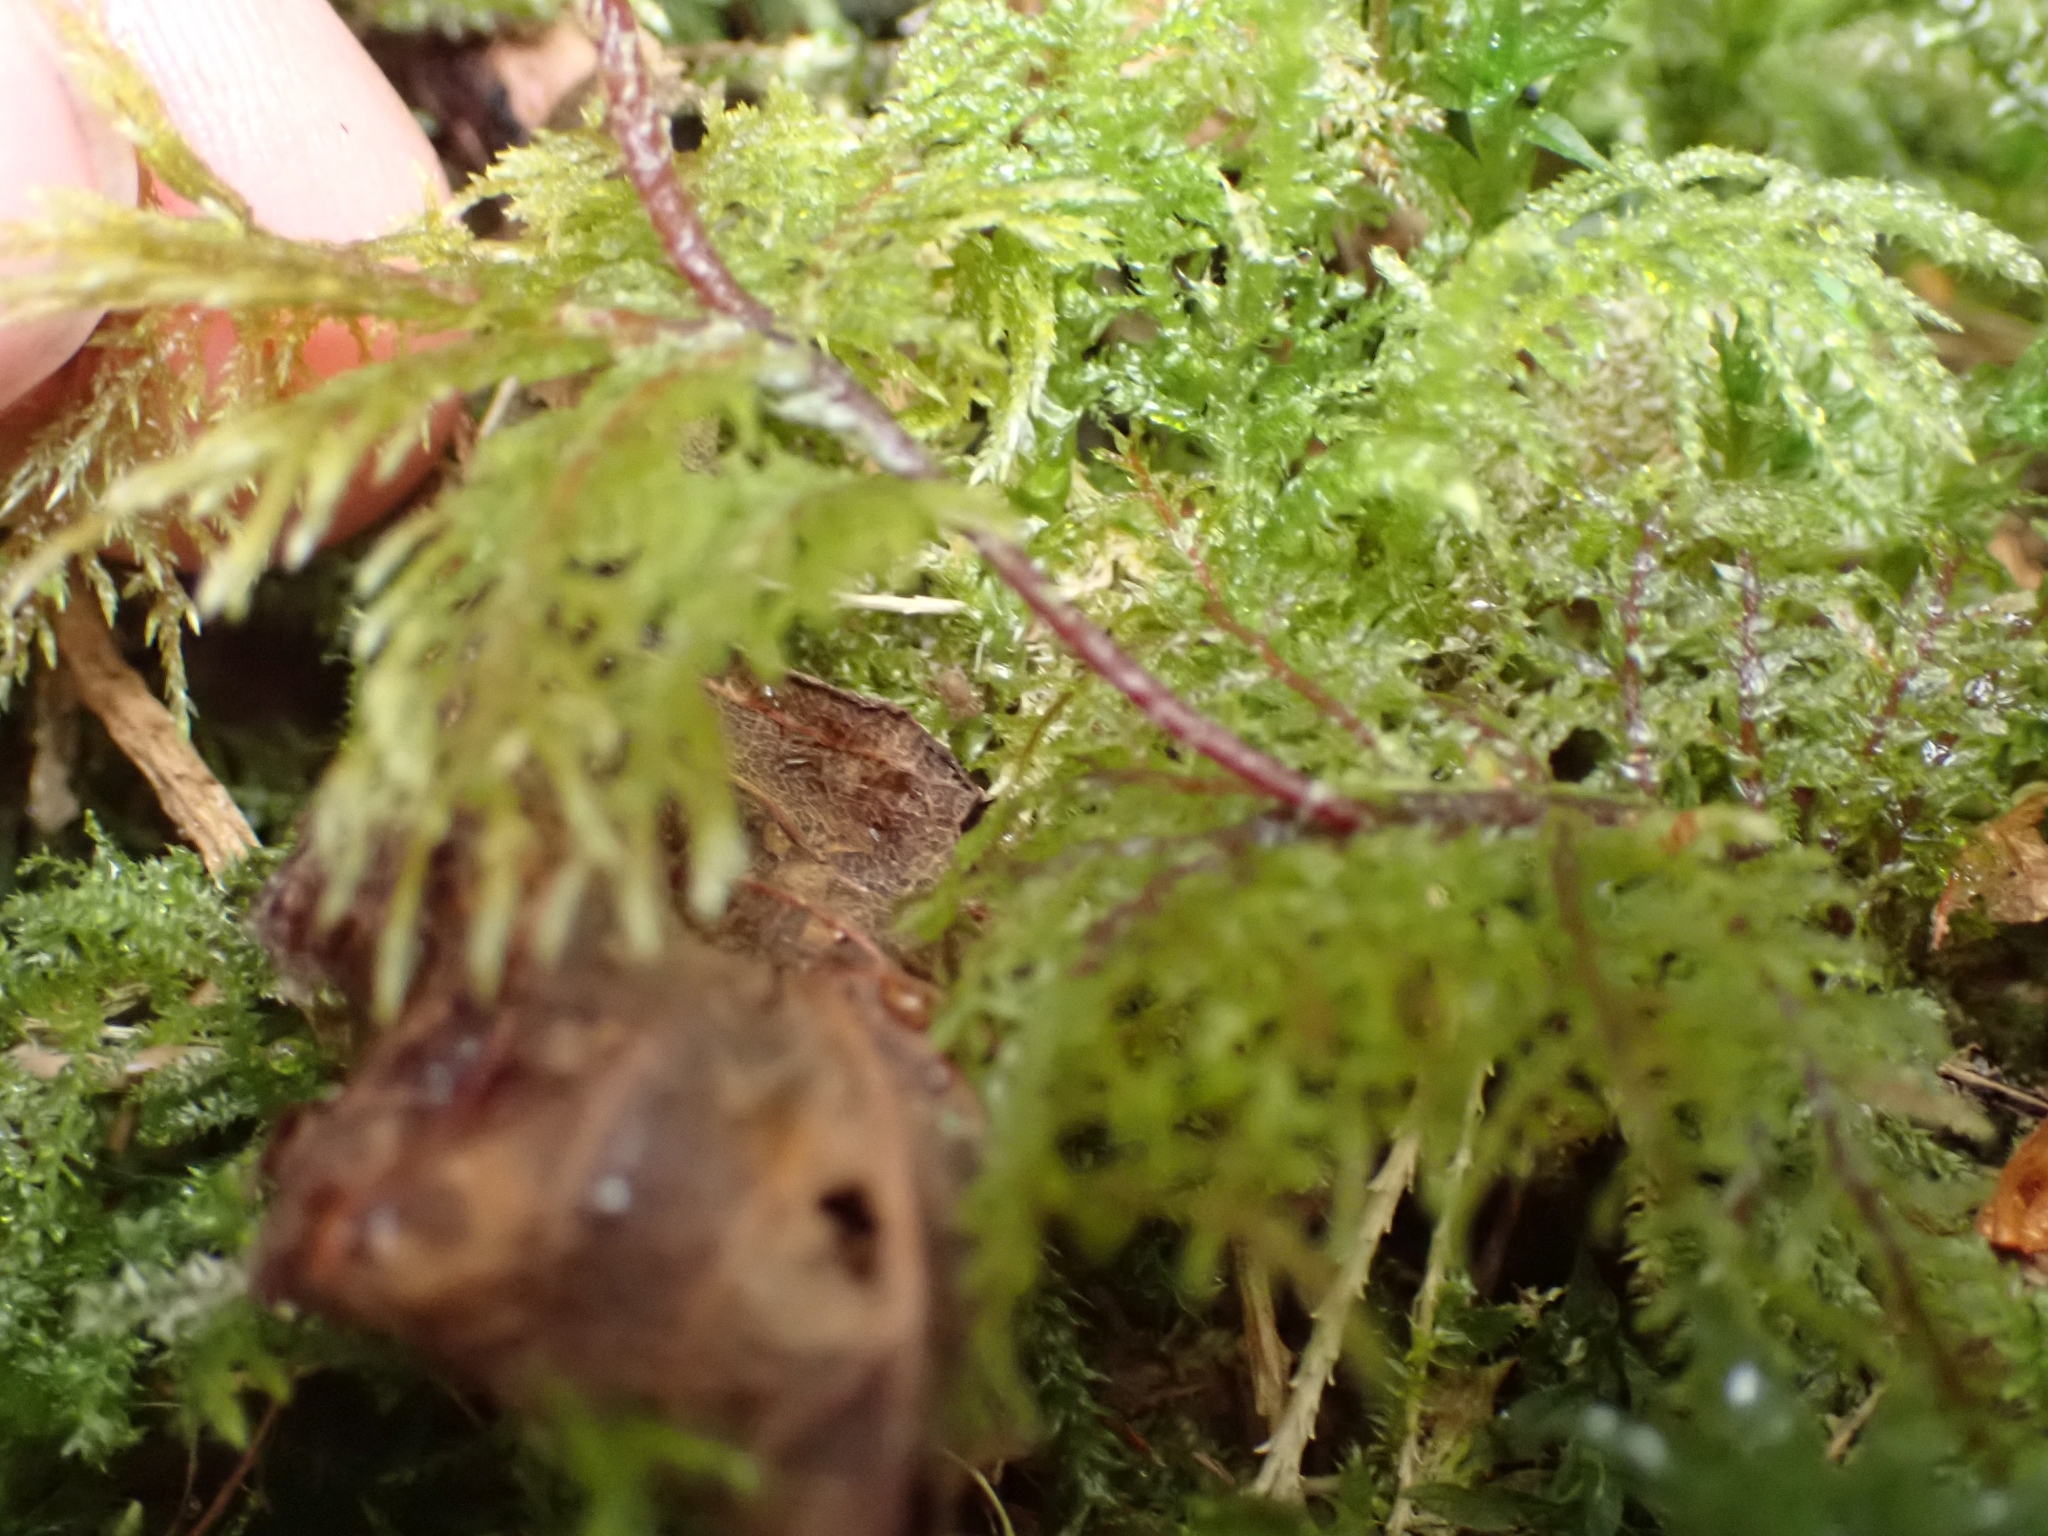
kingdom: Plantae
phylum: Bryophyta
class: Bryopsida
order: Hypnales
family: Hylocomiaceae
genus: Hylocomium
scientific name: Hylocomium splendens
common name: Stairstep moss
